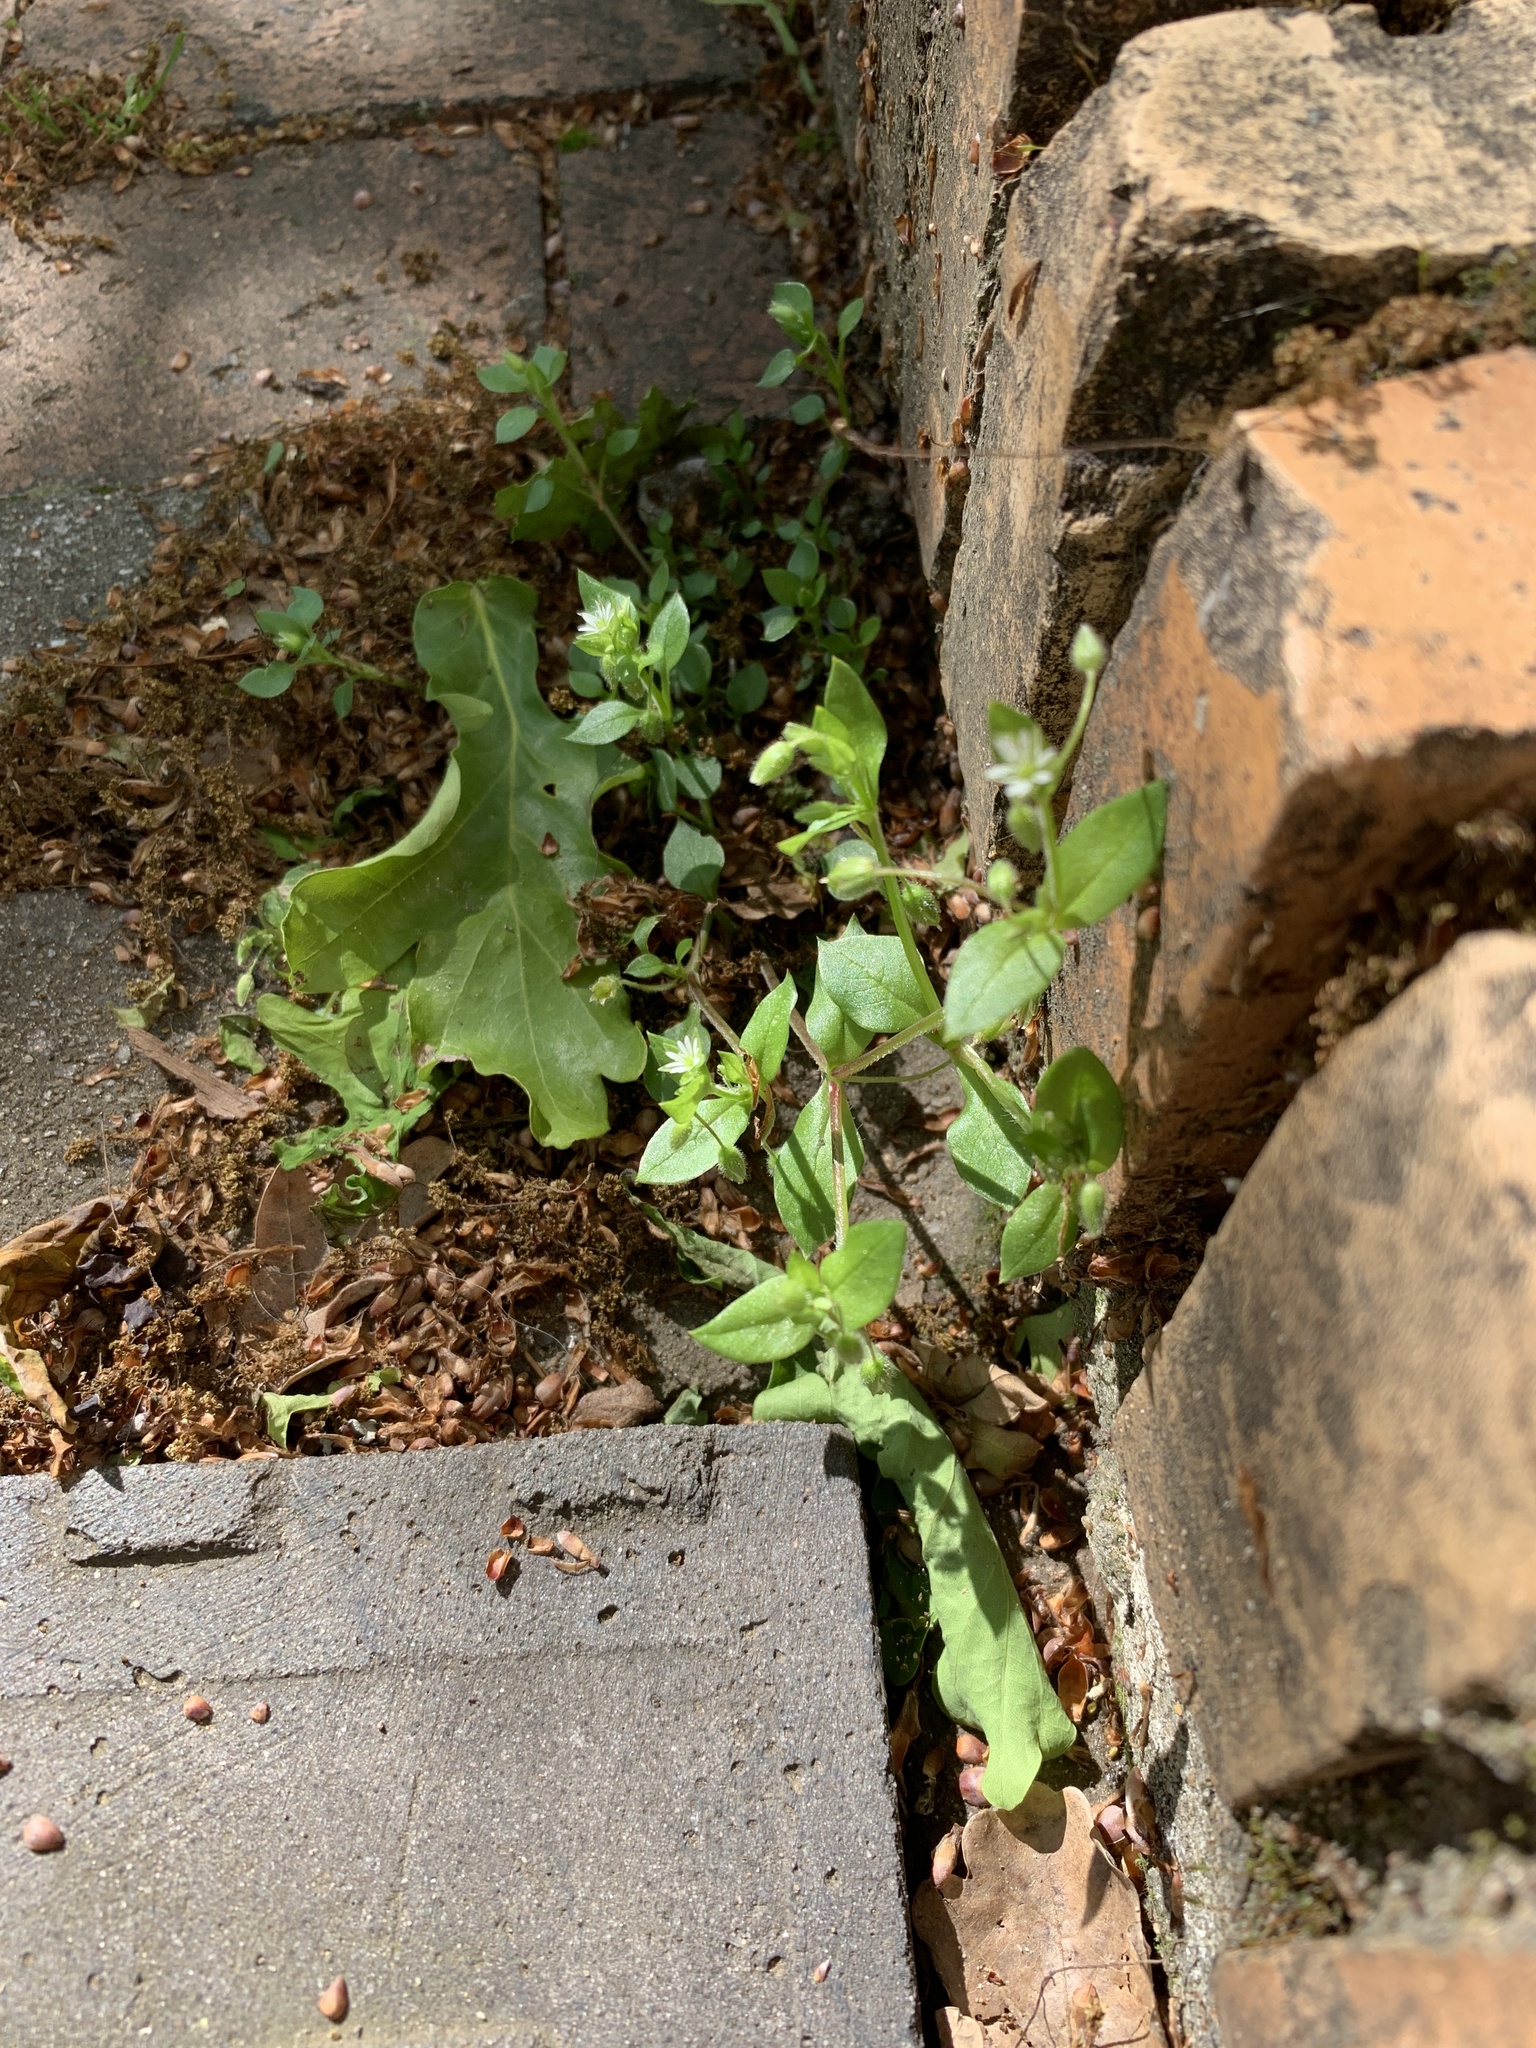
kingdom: Plantae
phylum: Tracheophyta
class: Magnoliopsida
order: Caryophyllales
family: Caryophyllaceae
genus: Stellaria
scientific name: Stellaria media
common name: Common chickweed
